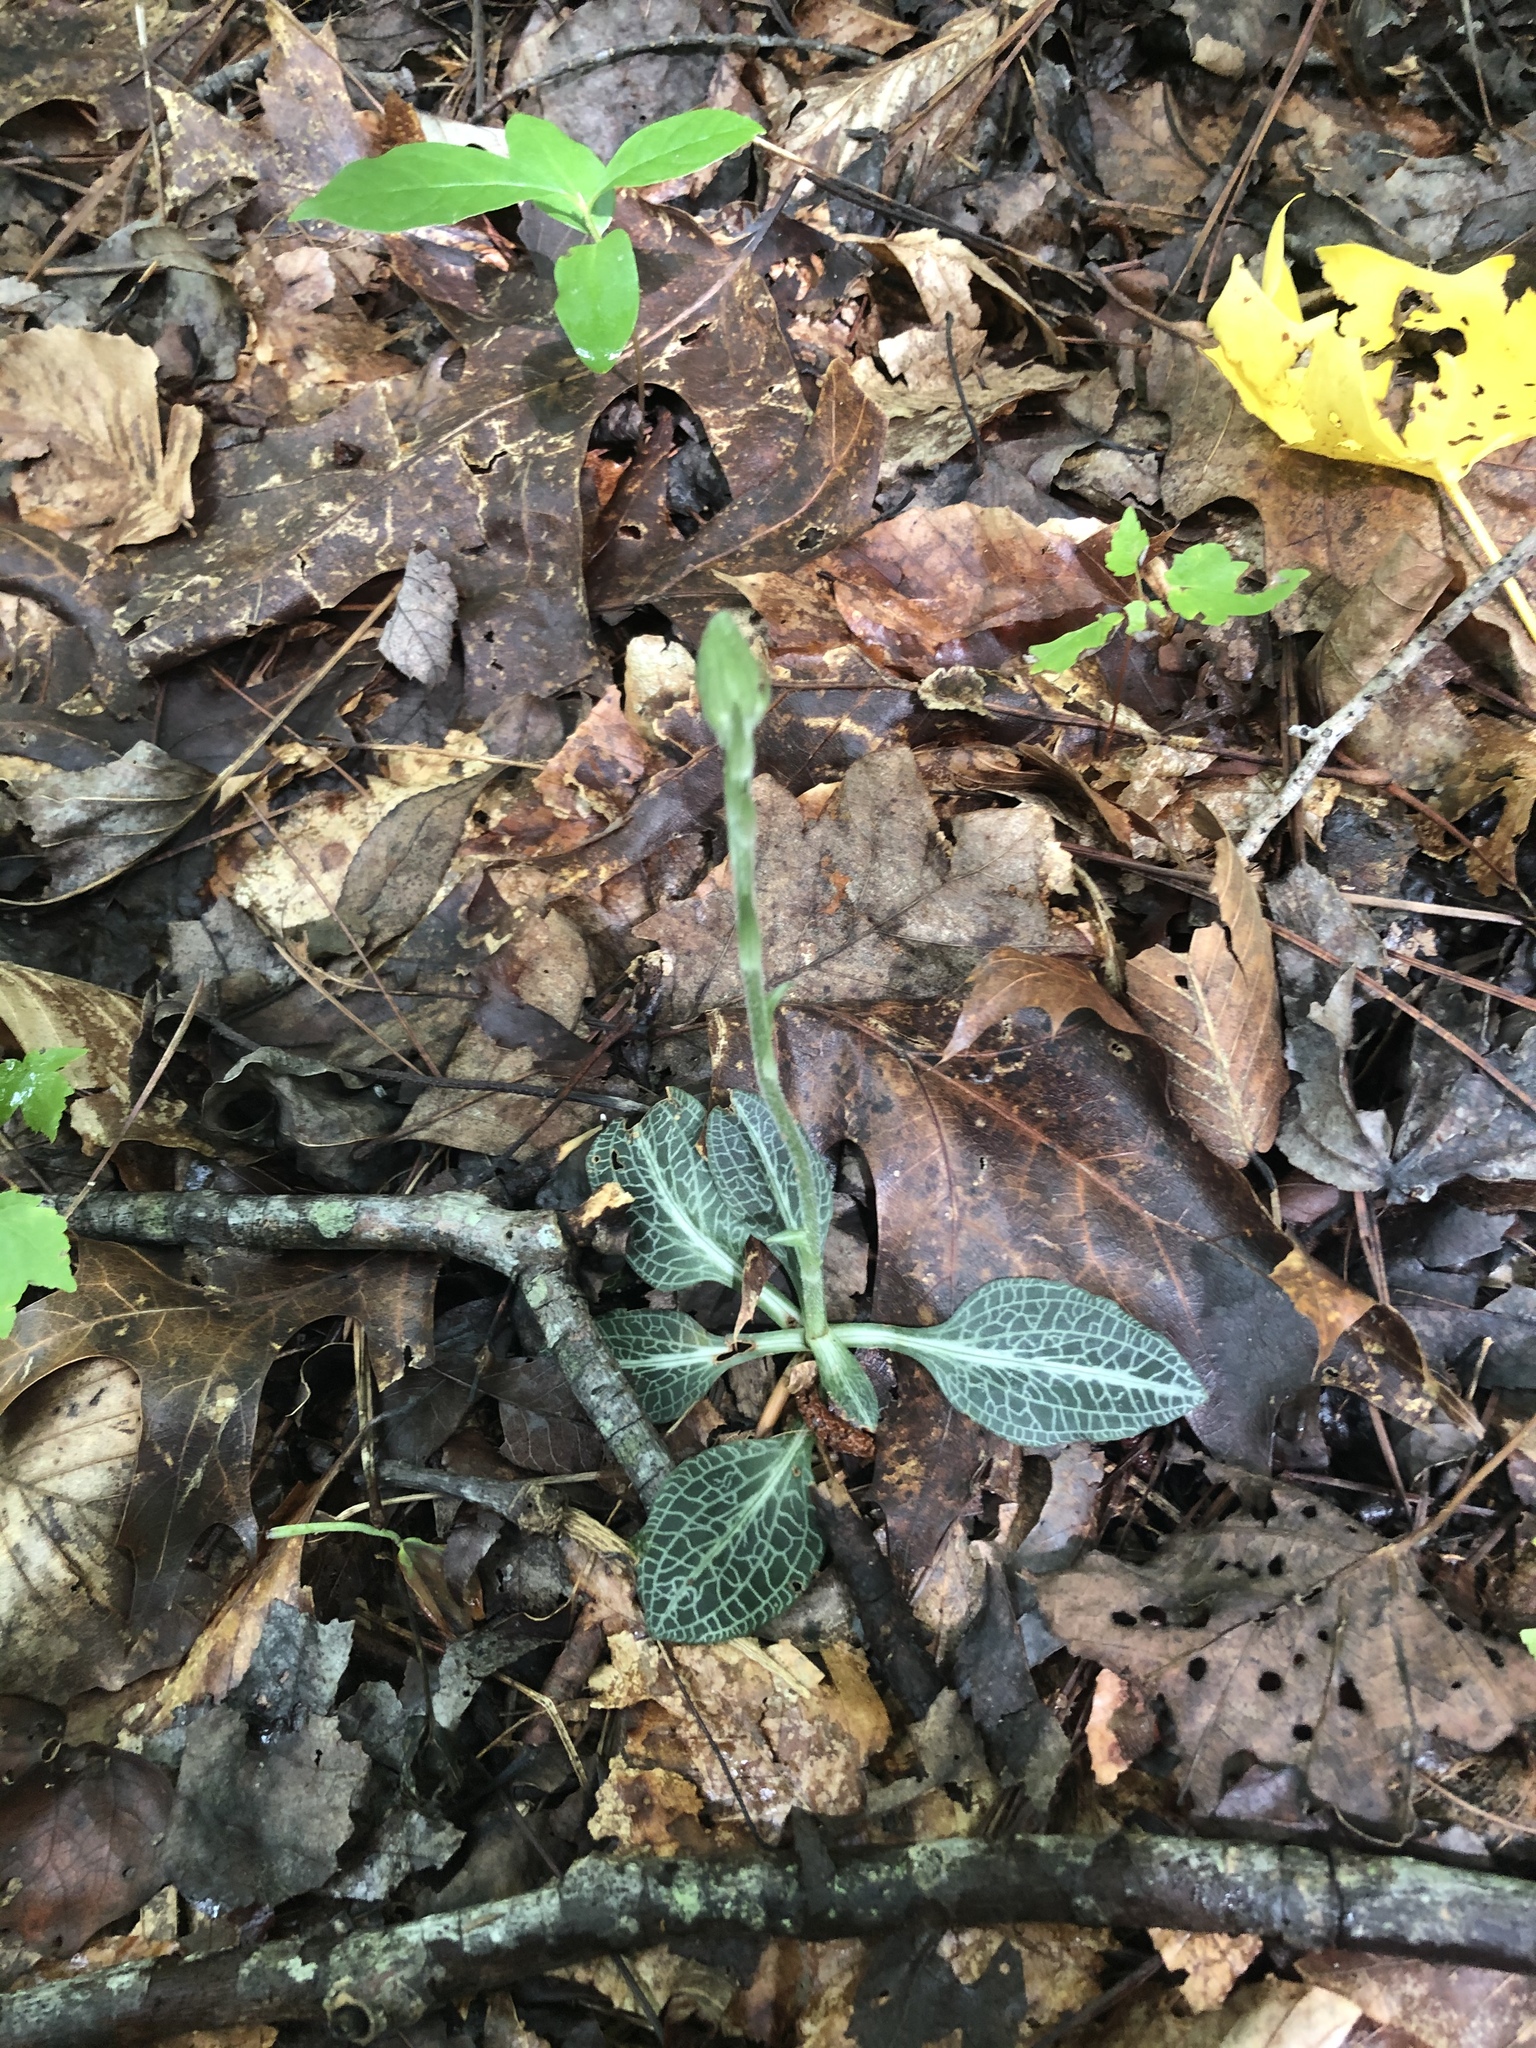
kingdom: Plantae
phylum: Tracheophyta
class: Liliopsida
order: Asparagales
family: Orchidaceae
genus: Goodyera
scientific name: Goodyera pubescens
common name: Downy rattlesnake-plantain
